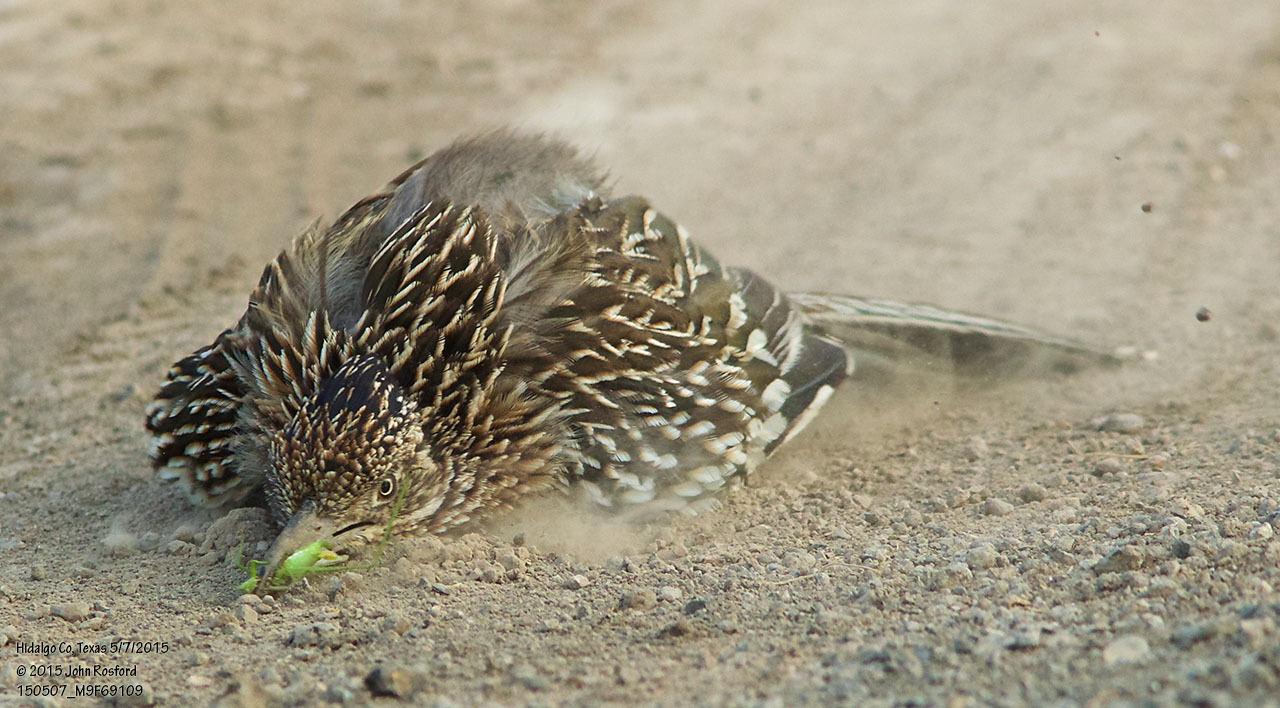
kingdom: Animalia
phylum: Chordata
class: Aves
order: Cuculiformes
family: Cuculidae
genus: Geococcyx
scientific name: Geococcyx californianus
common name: Greater roadrunner
